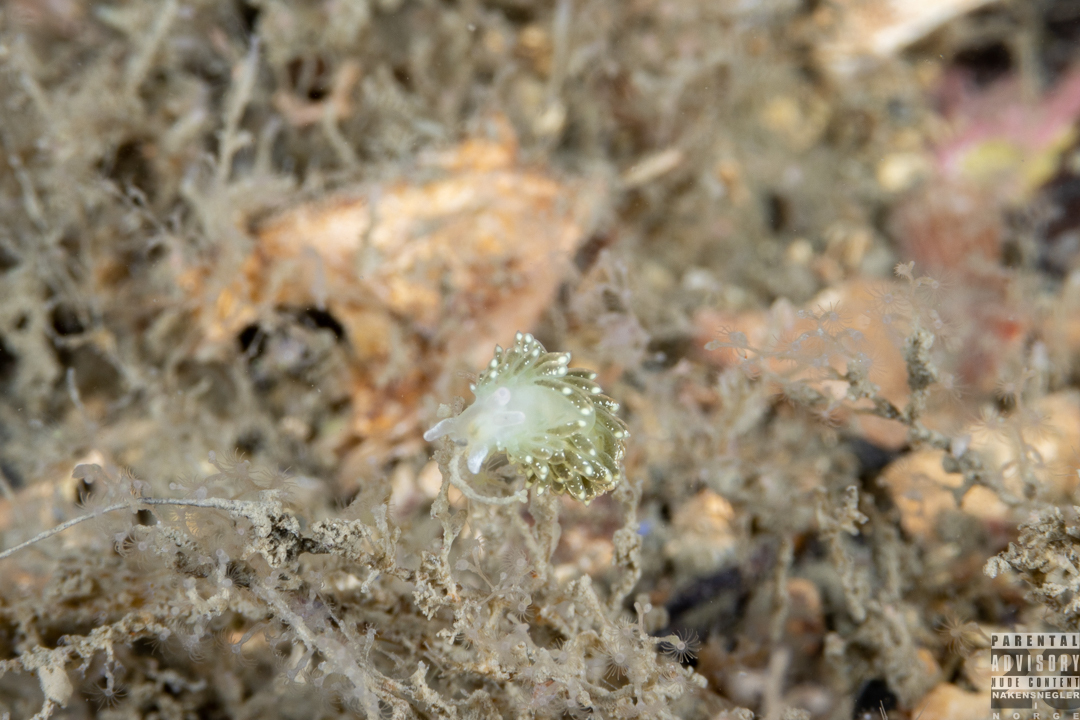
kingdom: Animalia
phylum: Mollusca
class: Gastropoda
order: Nudibranchia
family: Trinchesiidae
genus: Diaphoreolis
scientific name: Diaphoreolis viridis
